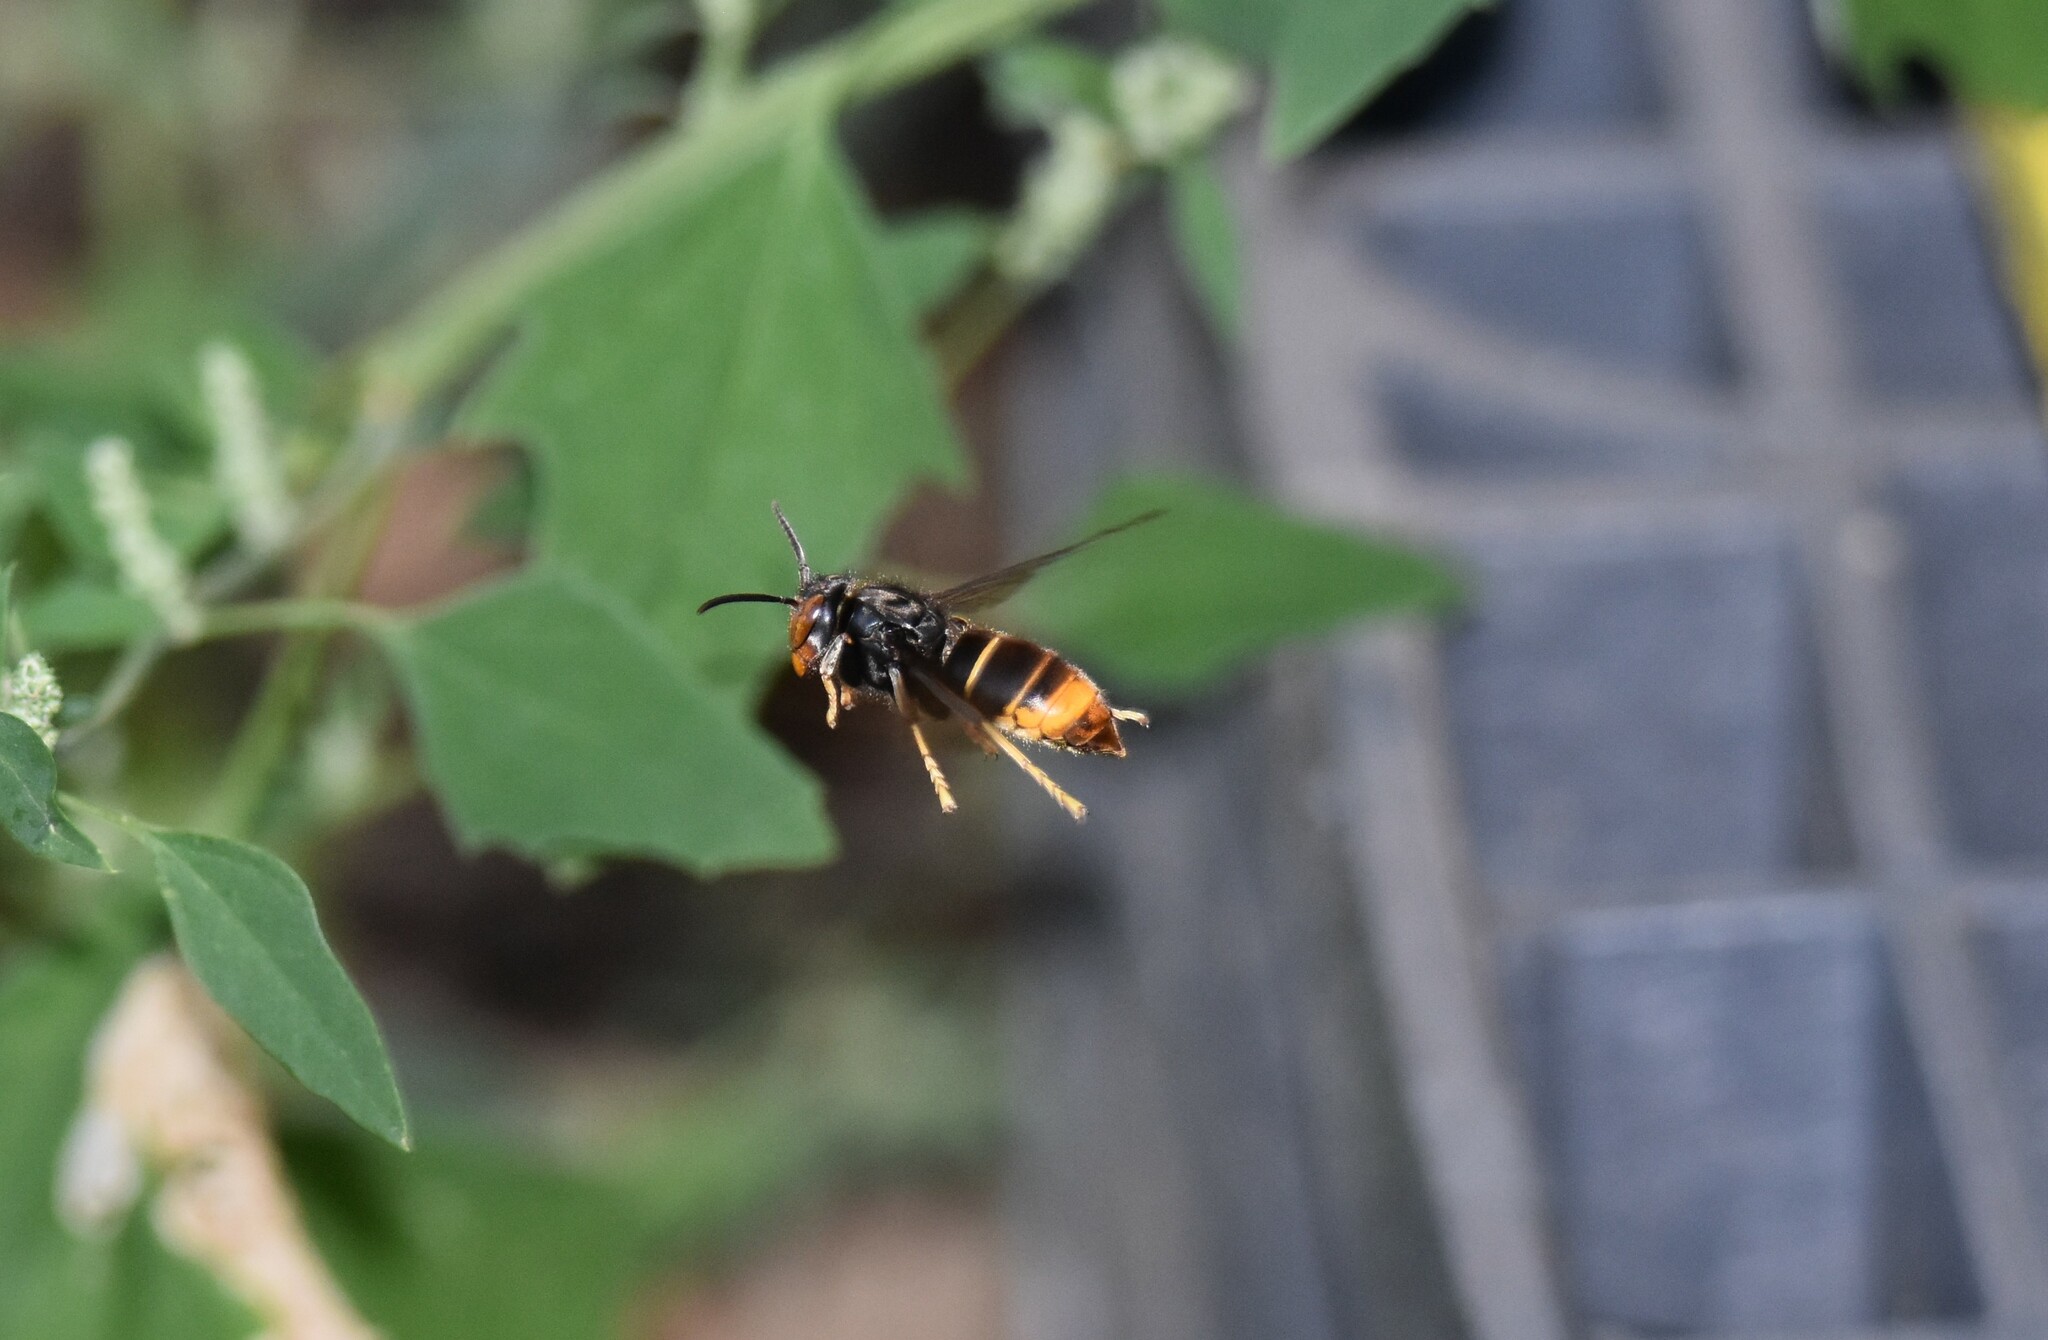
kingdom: Animalia
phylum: Arthropoda
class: Insecta
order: Hymenoptera
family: Vespidae
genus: Vespa
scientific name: Vespa velutina
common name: Asian hornet
